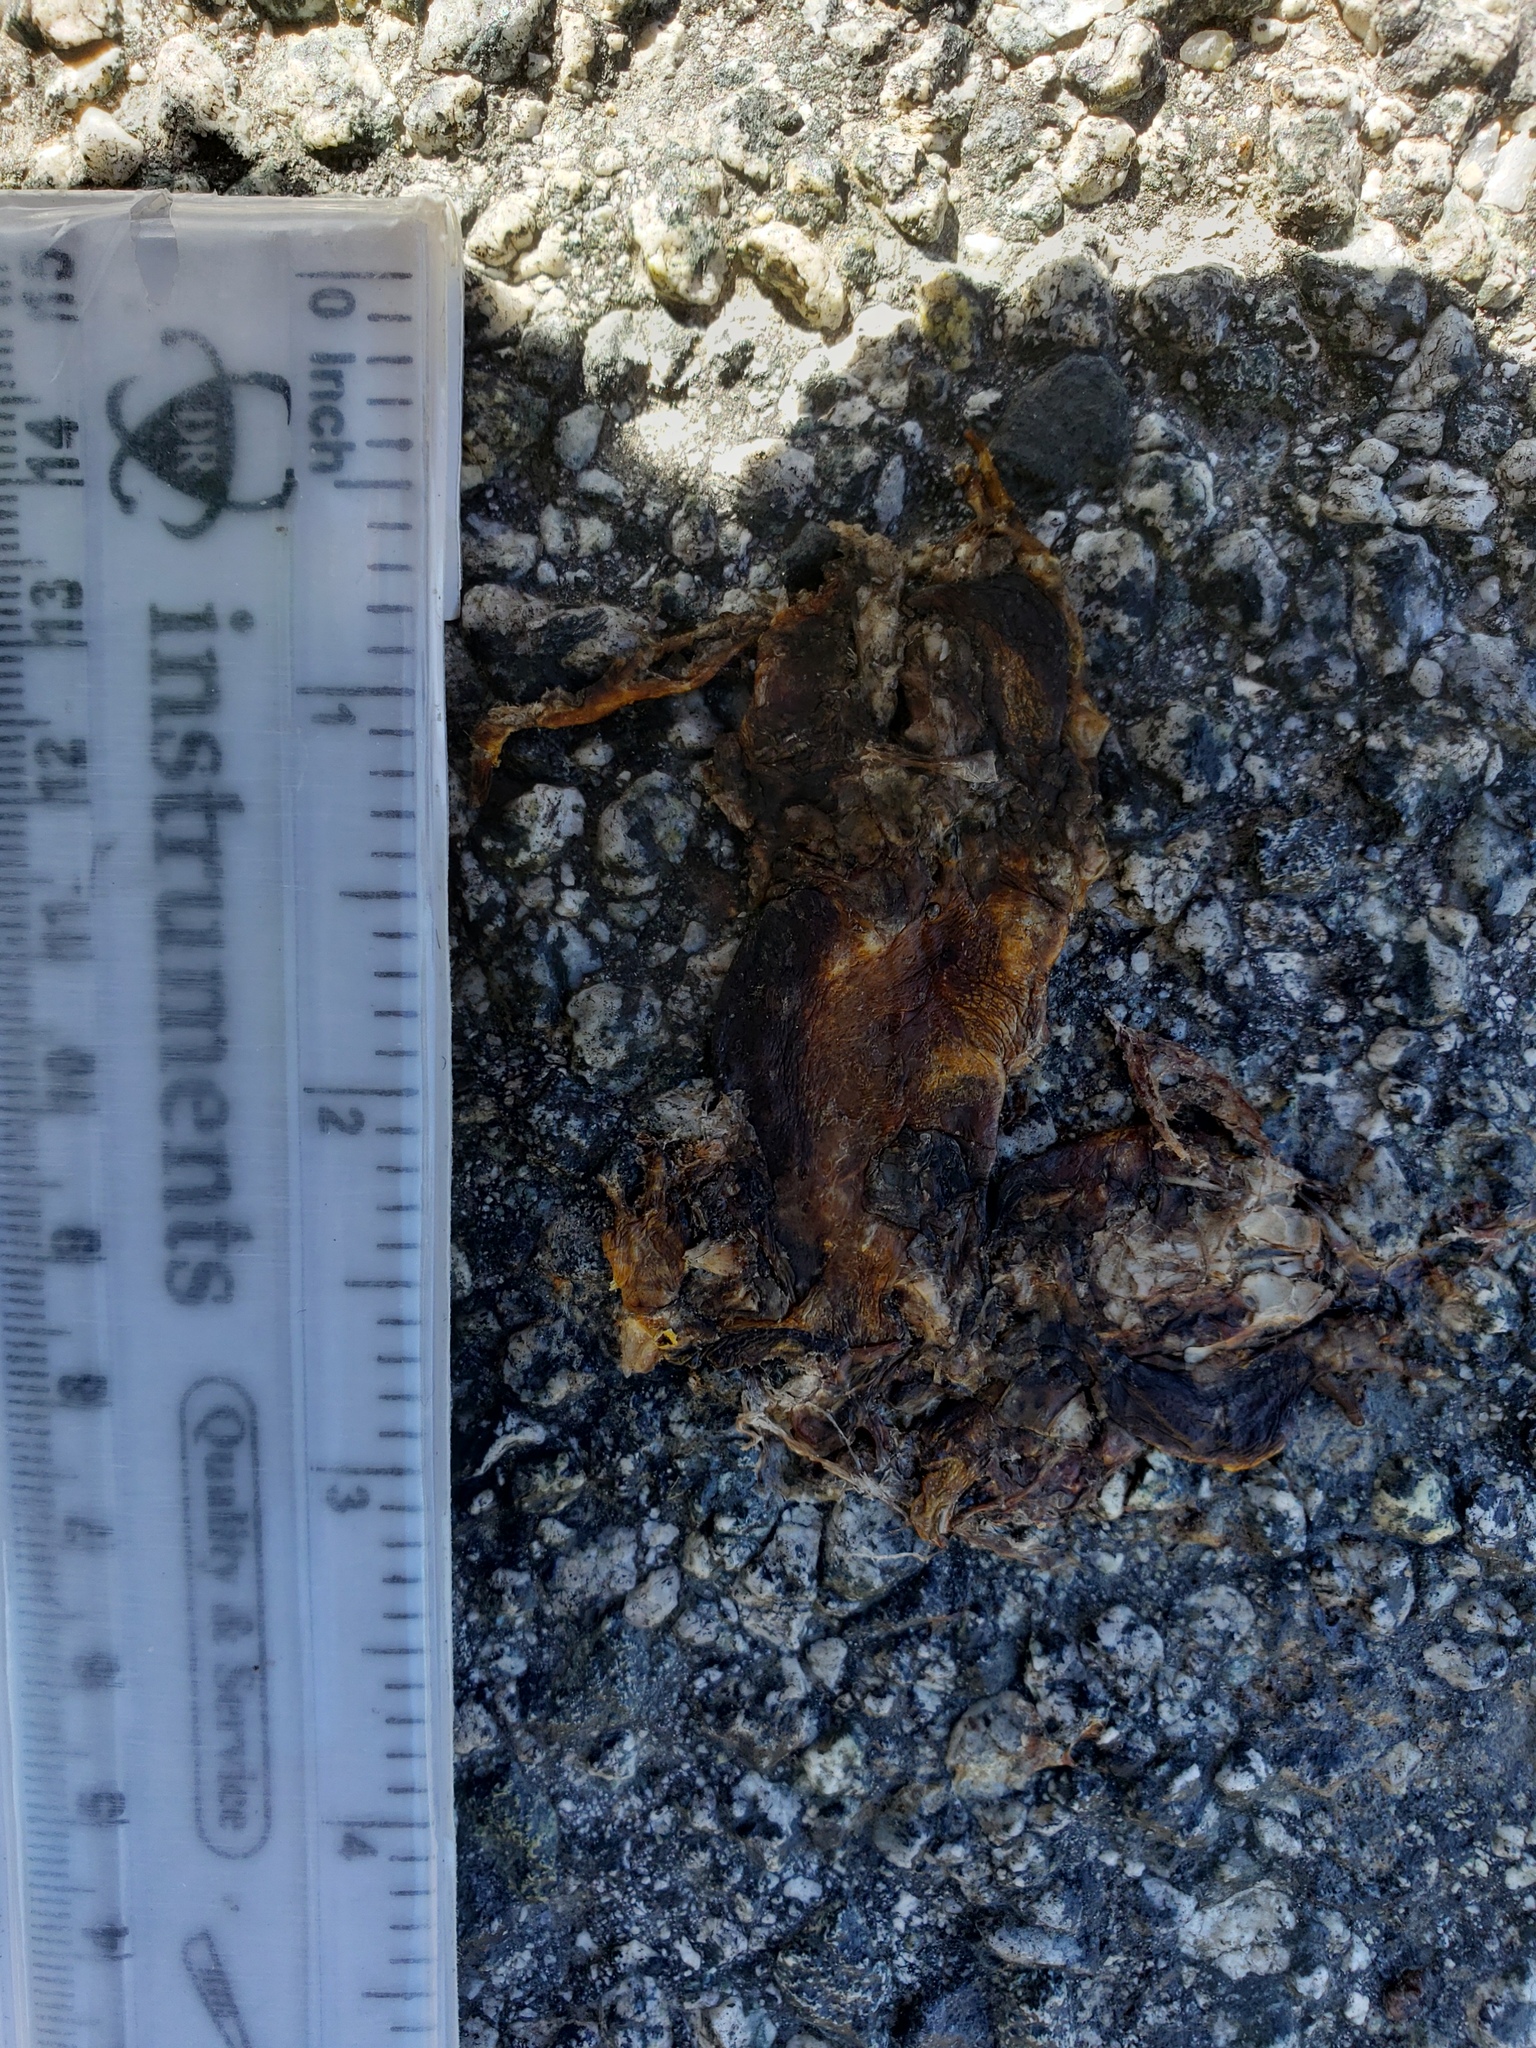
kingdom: Animalia
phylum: Chordata
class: Amphibia
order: Caudata
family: Salamandridae
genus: Taricha
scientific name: Taricha
